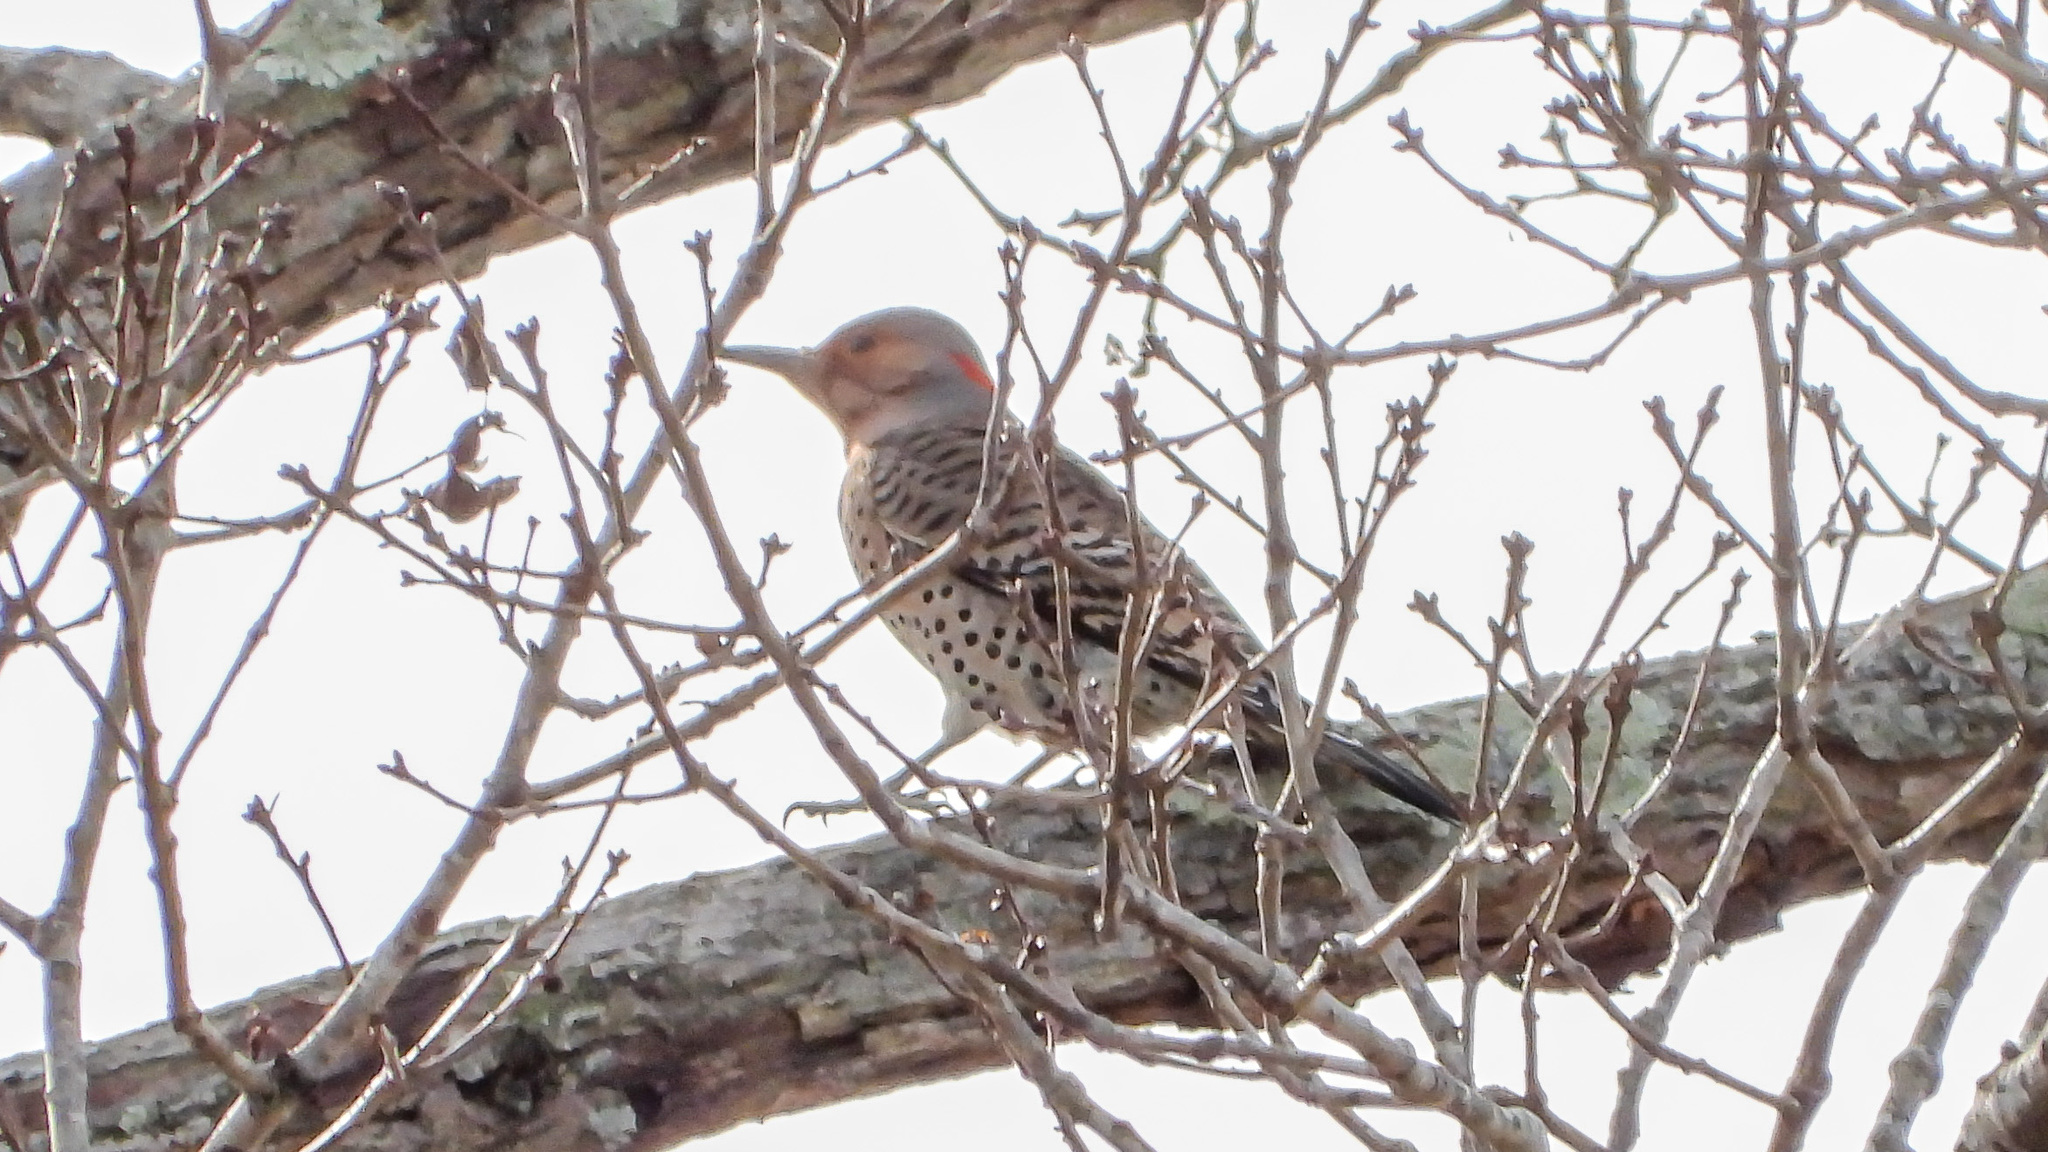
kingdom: Animalia
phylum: Chordata
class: Aves
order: Piciformes
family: Picidae
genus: Colaptes
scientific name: Colaptes auratus
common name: Northern flicker
